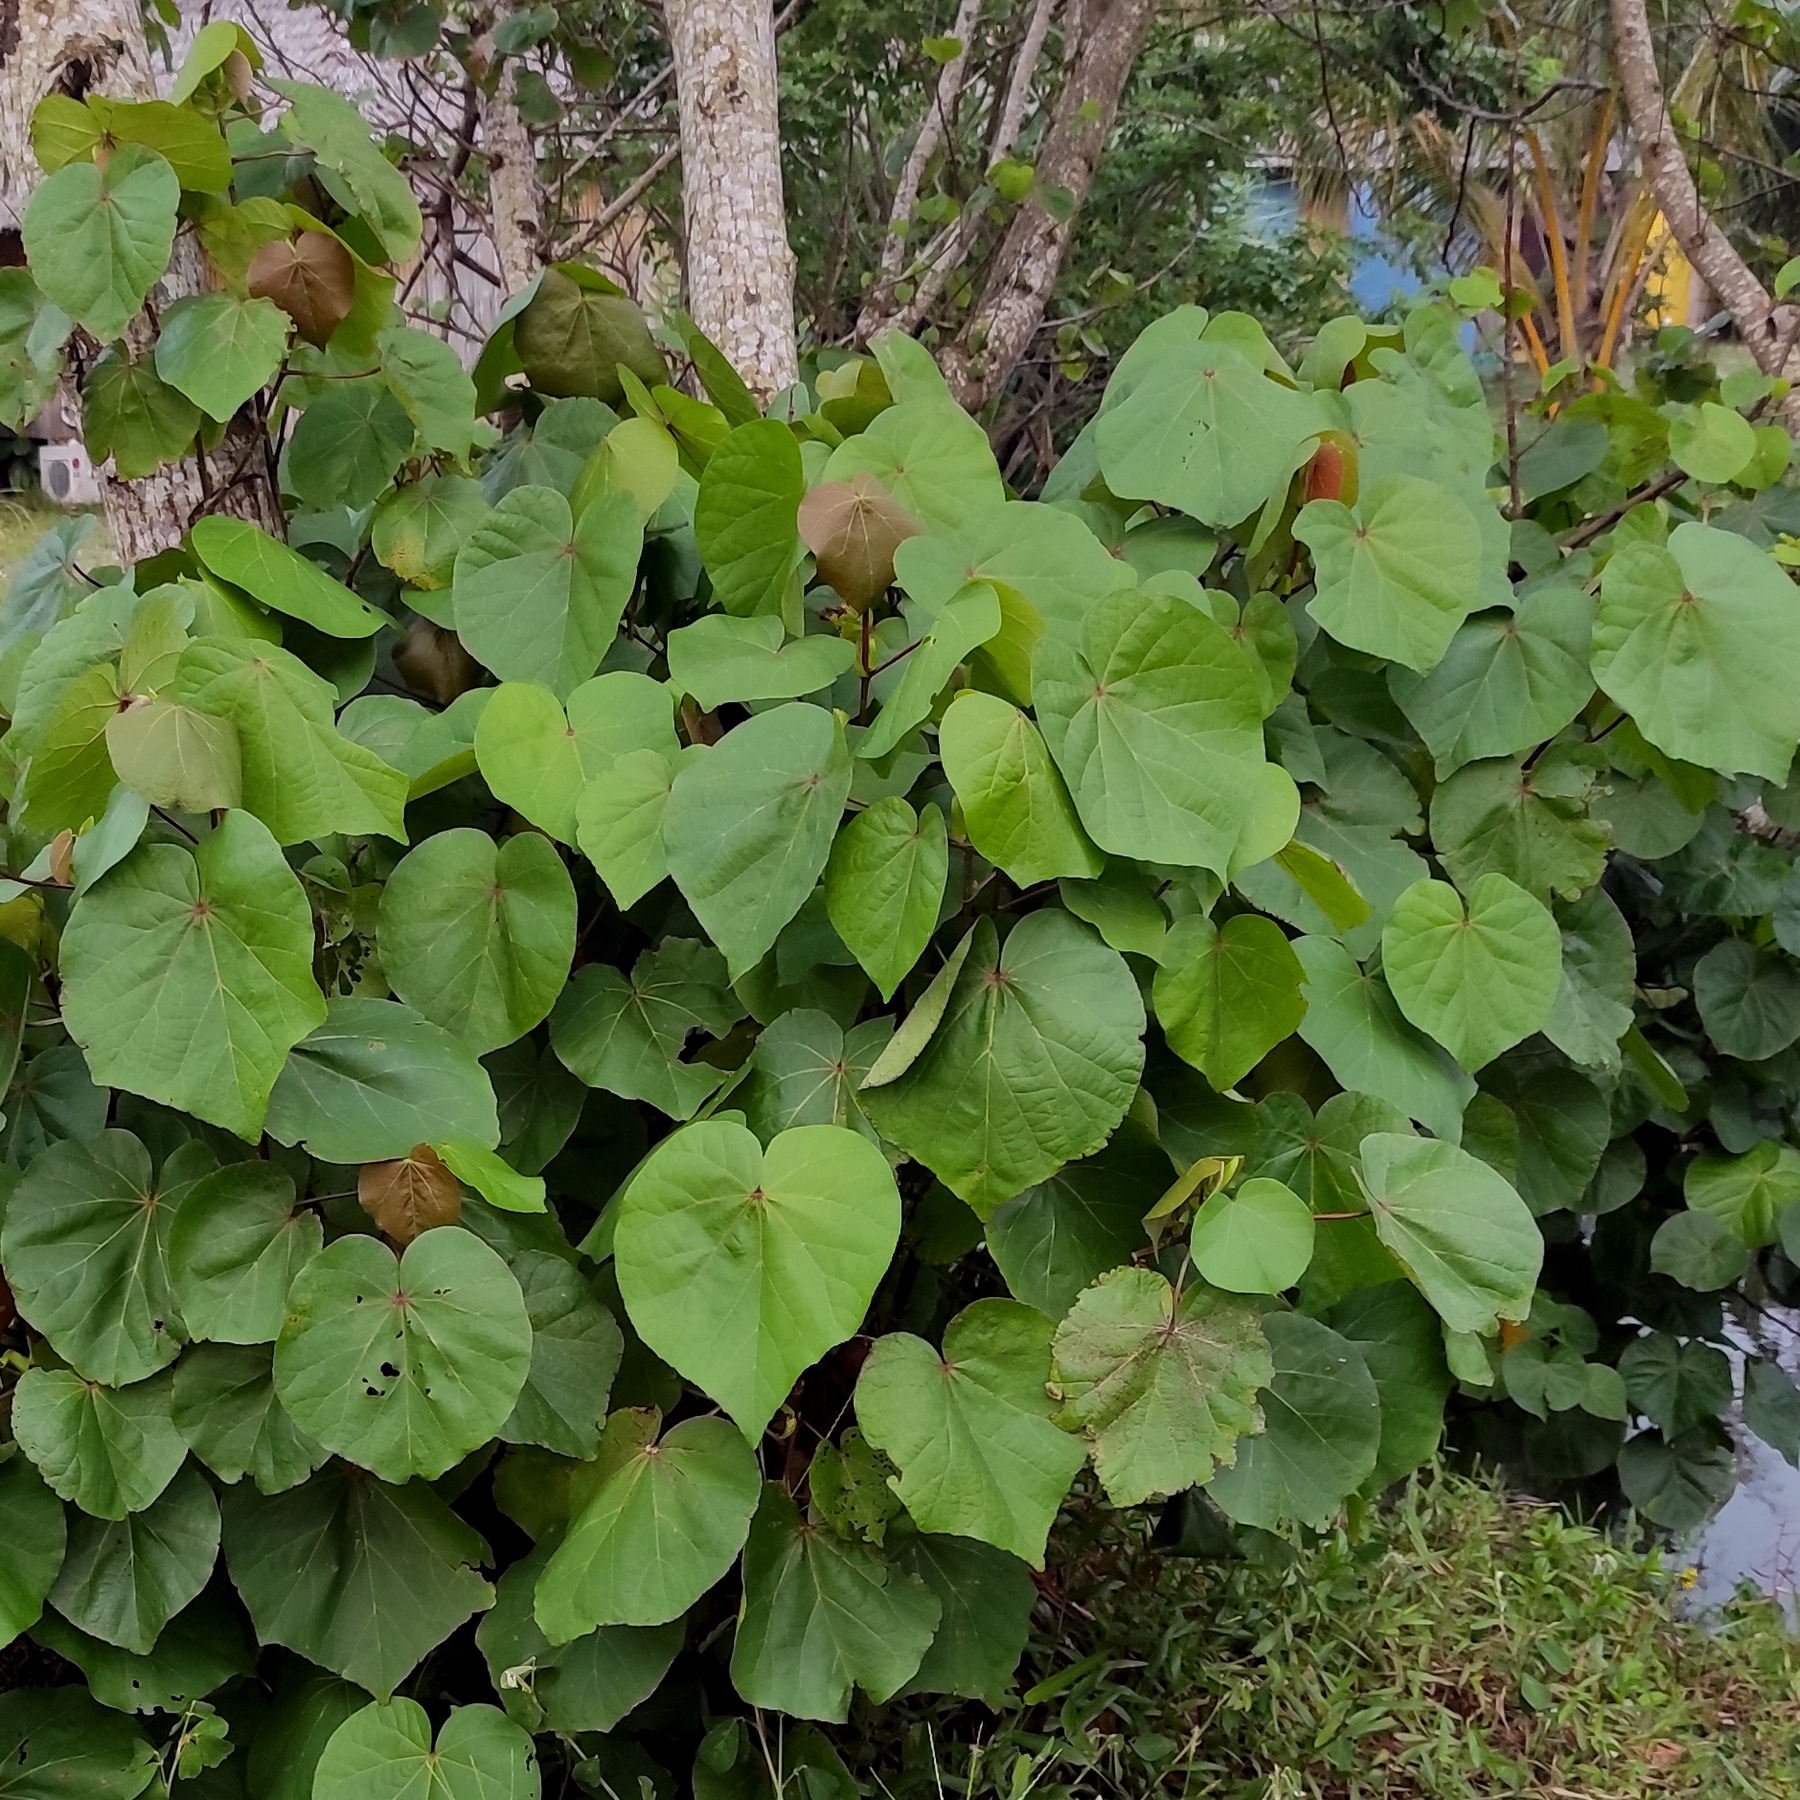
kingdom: Plantae
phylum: Tracheophyta
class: Magnoliopsida
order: Malvales
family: Malvaceae
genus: Talipariti
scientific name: Talipariti tiliaceum
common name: Sea hibiscus
